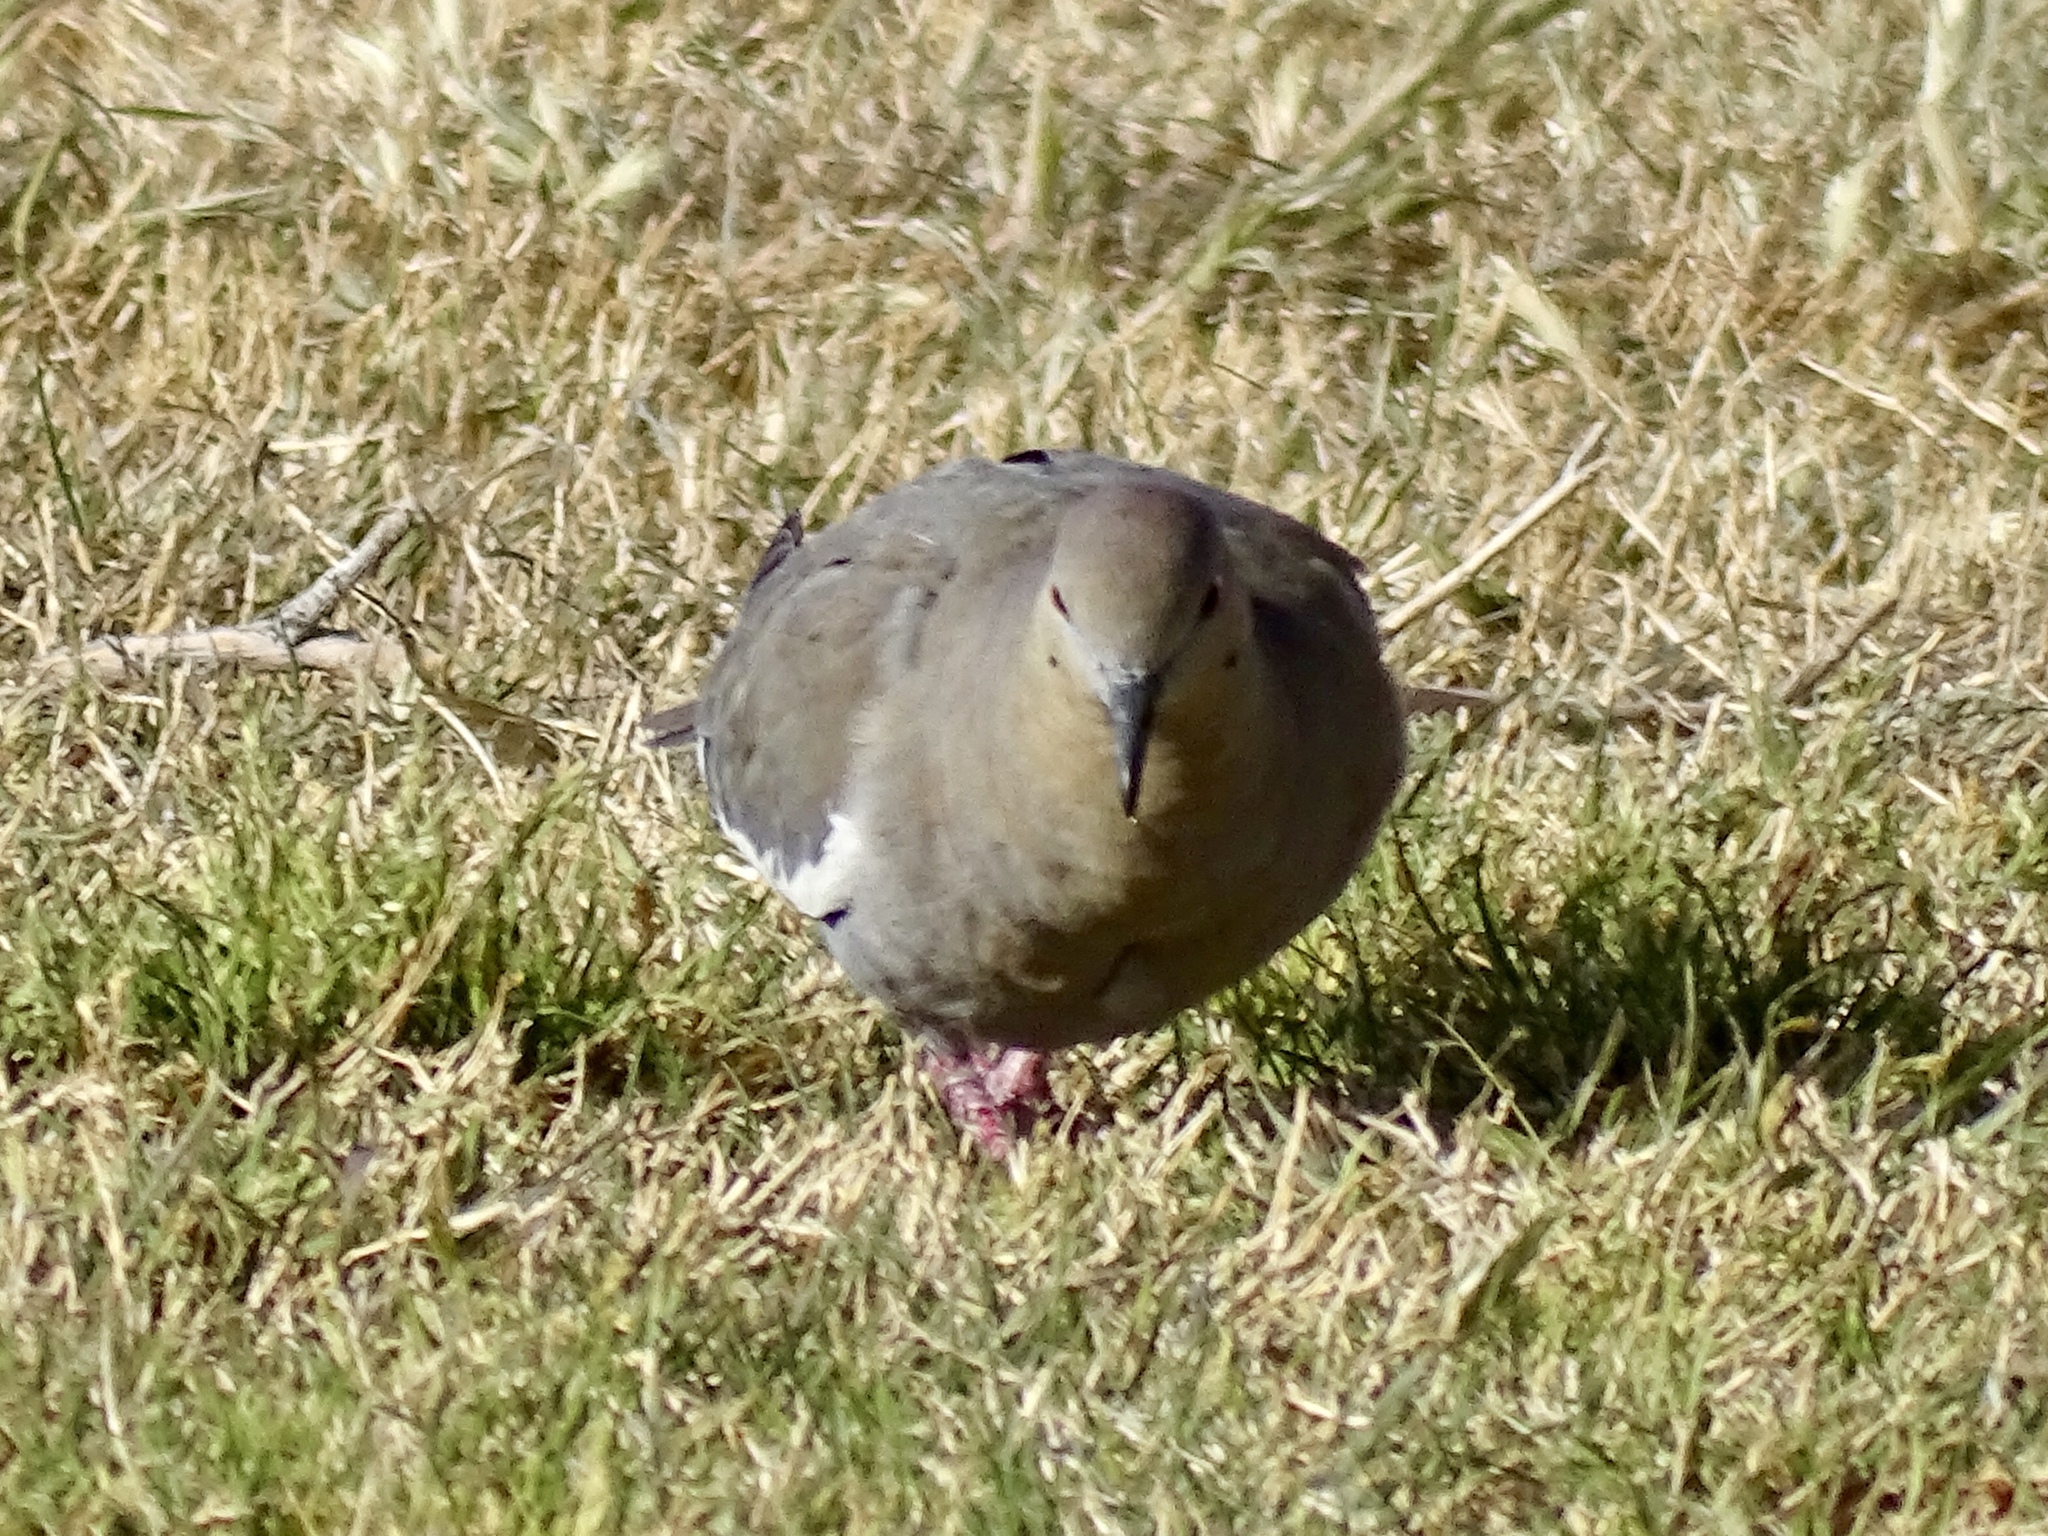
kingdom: Animalia
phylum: Chordata
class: Aves
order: Columbiformes
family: Columbidae
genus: Zenaida
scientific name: Zenaida asiatica
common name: White-winged dove
